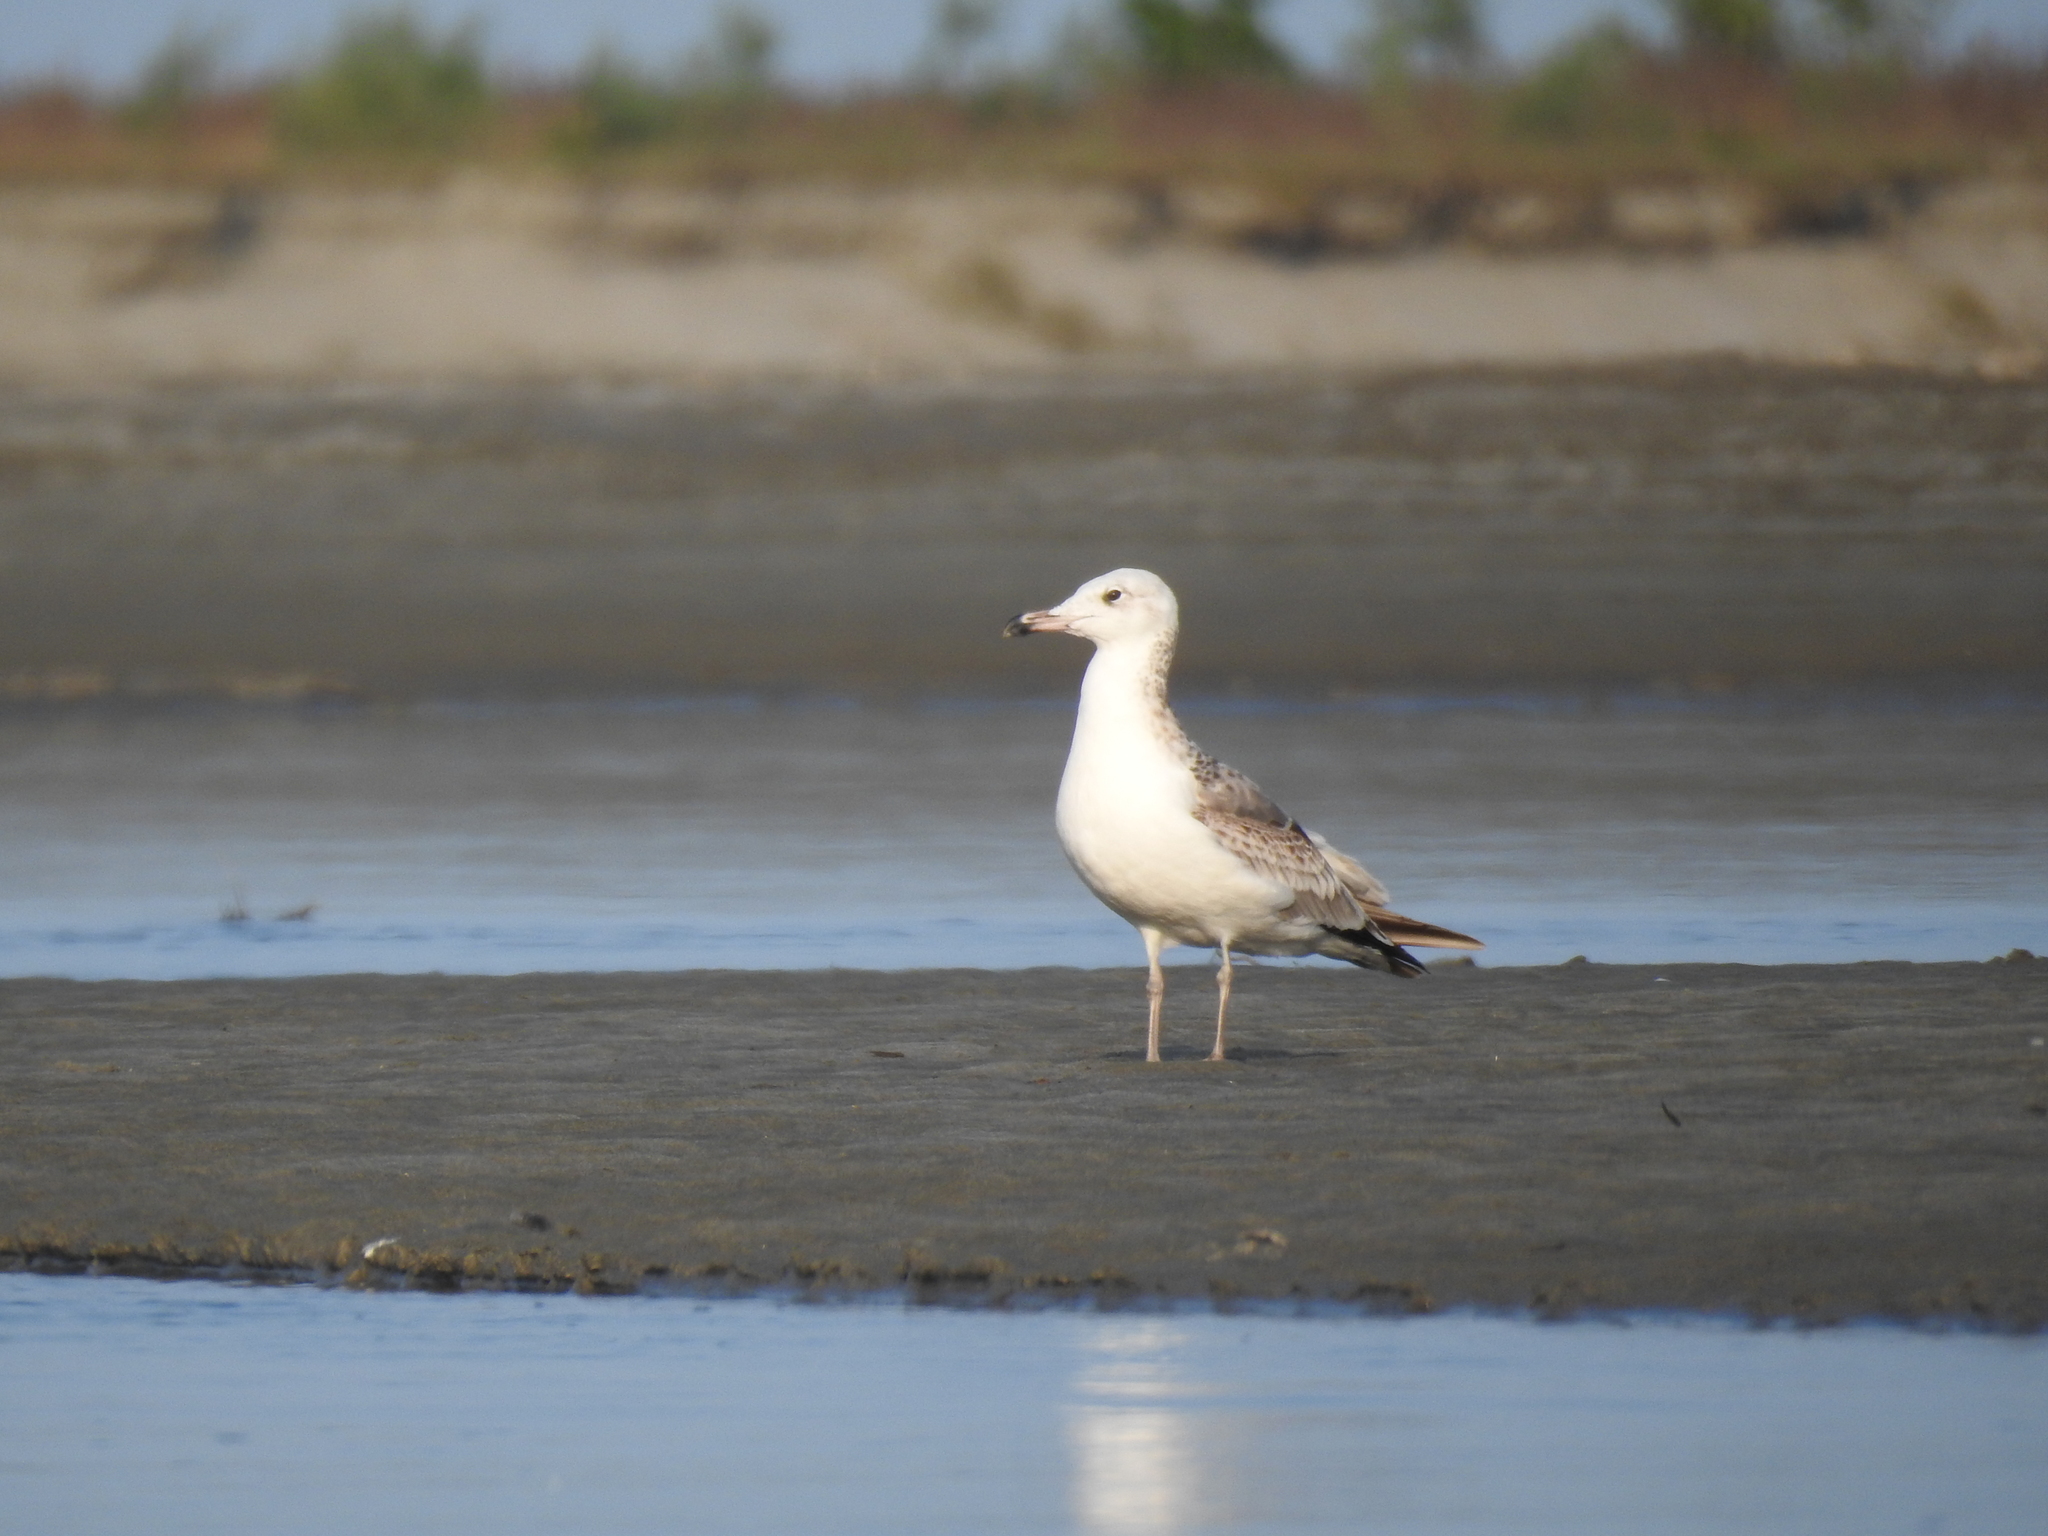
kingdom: Animalia
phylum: Chordata
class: Aves
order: Charadriiformes
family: Laridae
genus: Larus
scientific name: Larus fuscus
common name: Lesser black-backed gull
